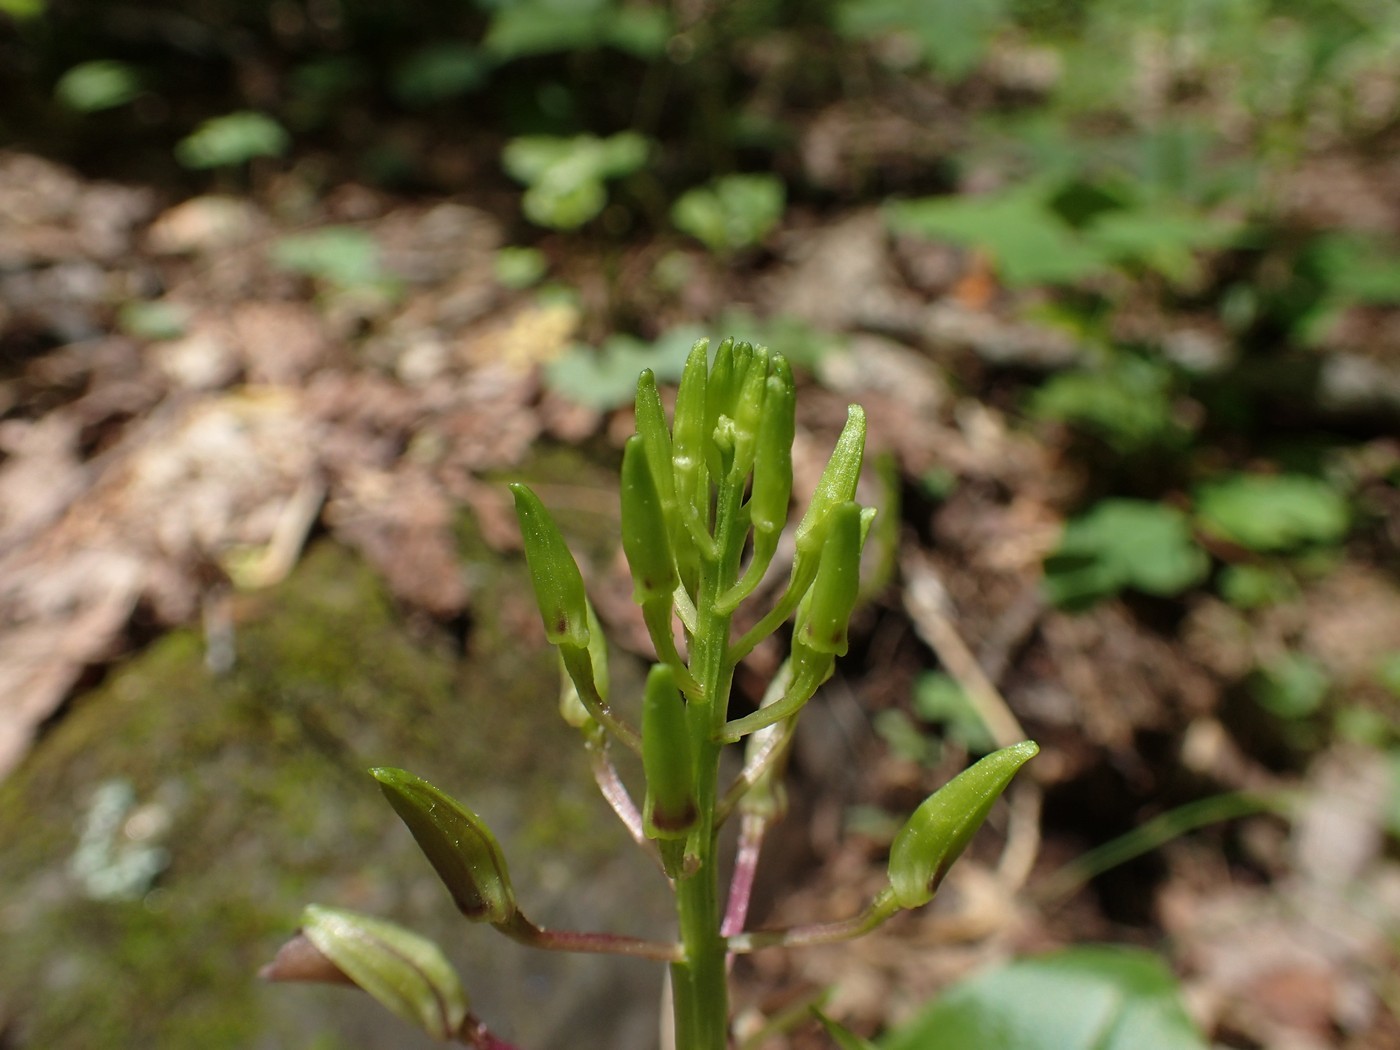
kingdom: Plantae
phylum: Tracheophyta
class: Liliopsida
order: Asparagales
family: Orchidaceae
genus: Liparis
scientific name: Liparis liliifolia
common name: Brown wide-lip orchid
